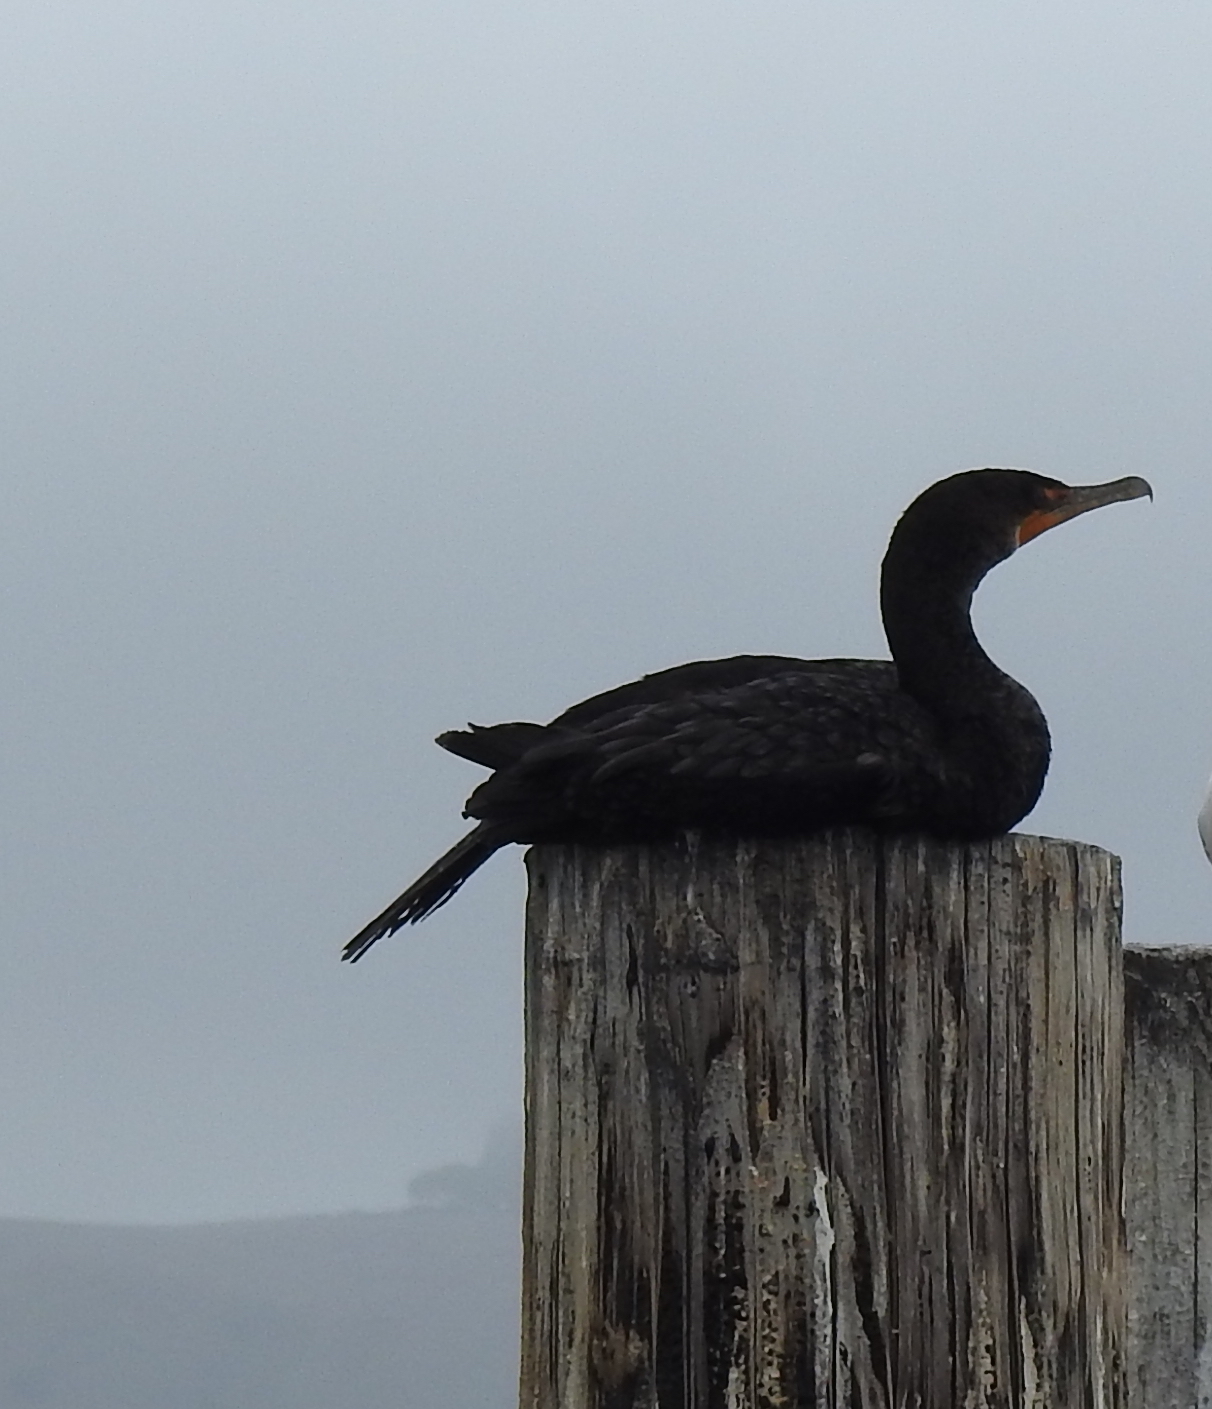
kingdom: Animalia
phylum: Chordata
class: Aves
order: Suliformes
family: Phalacrocoracidae
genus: Phalacrocorax
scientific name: Phalacrocorax auritus
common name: Double-crested cormorant
